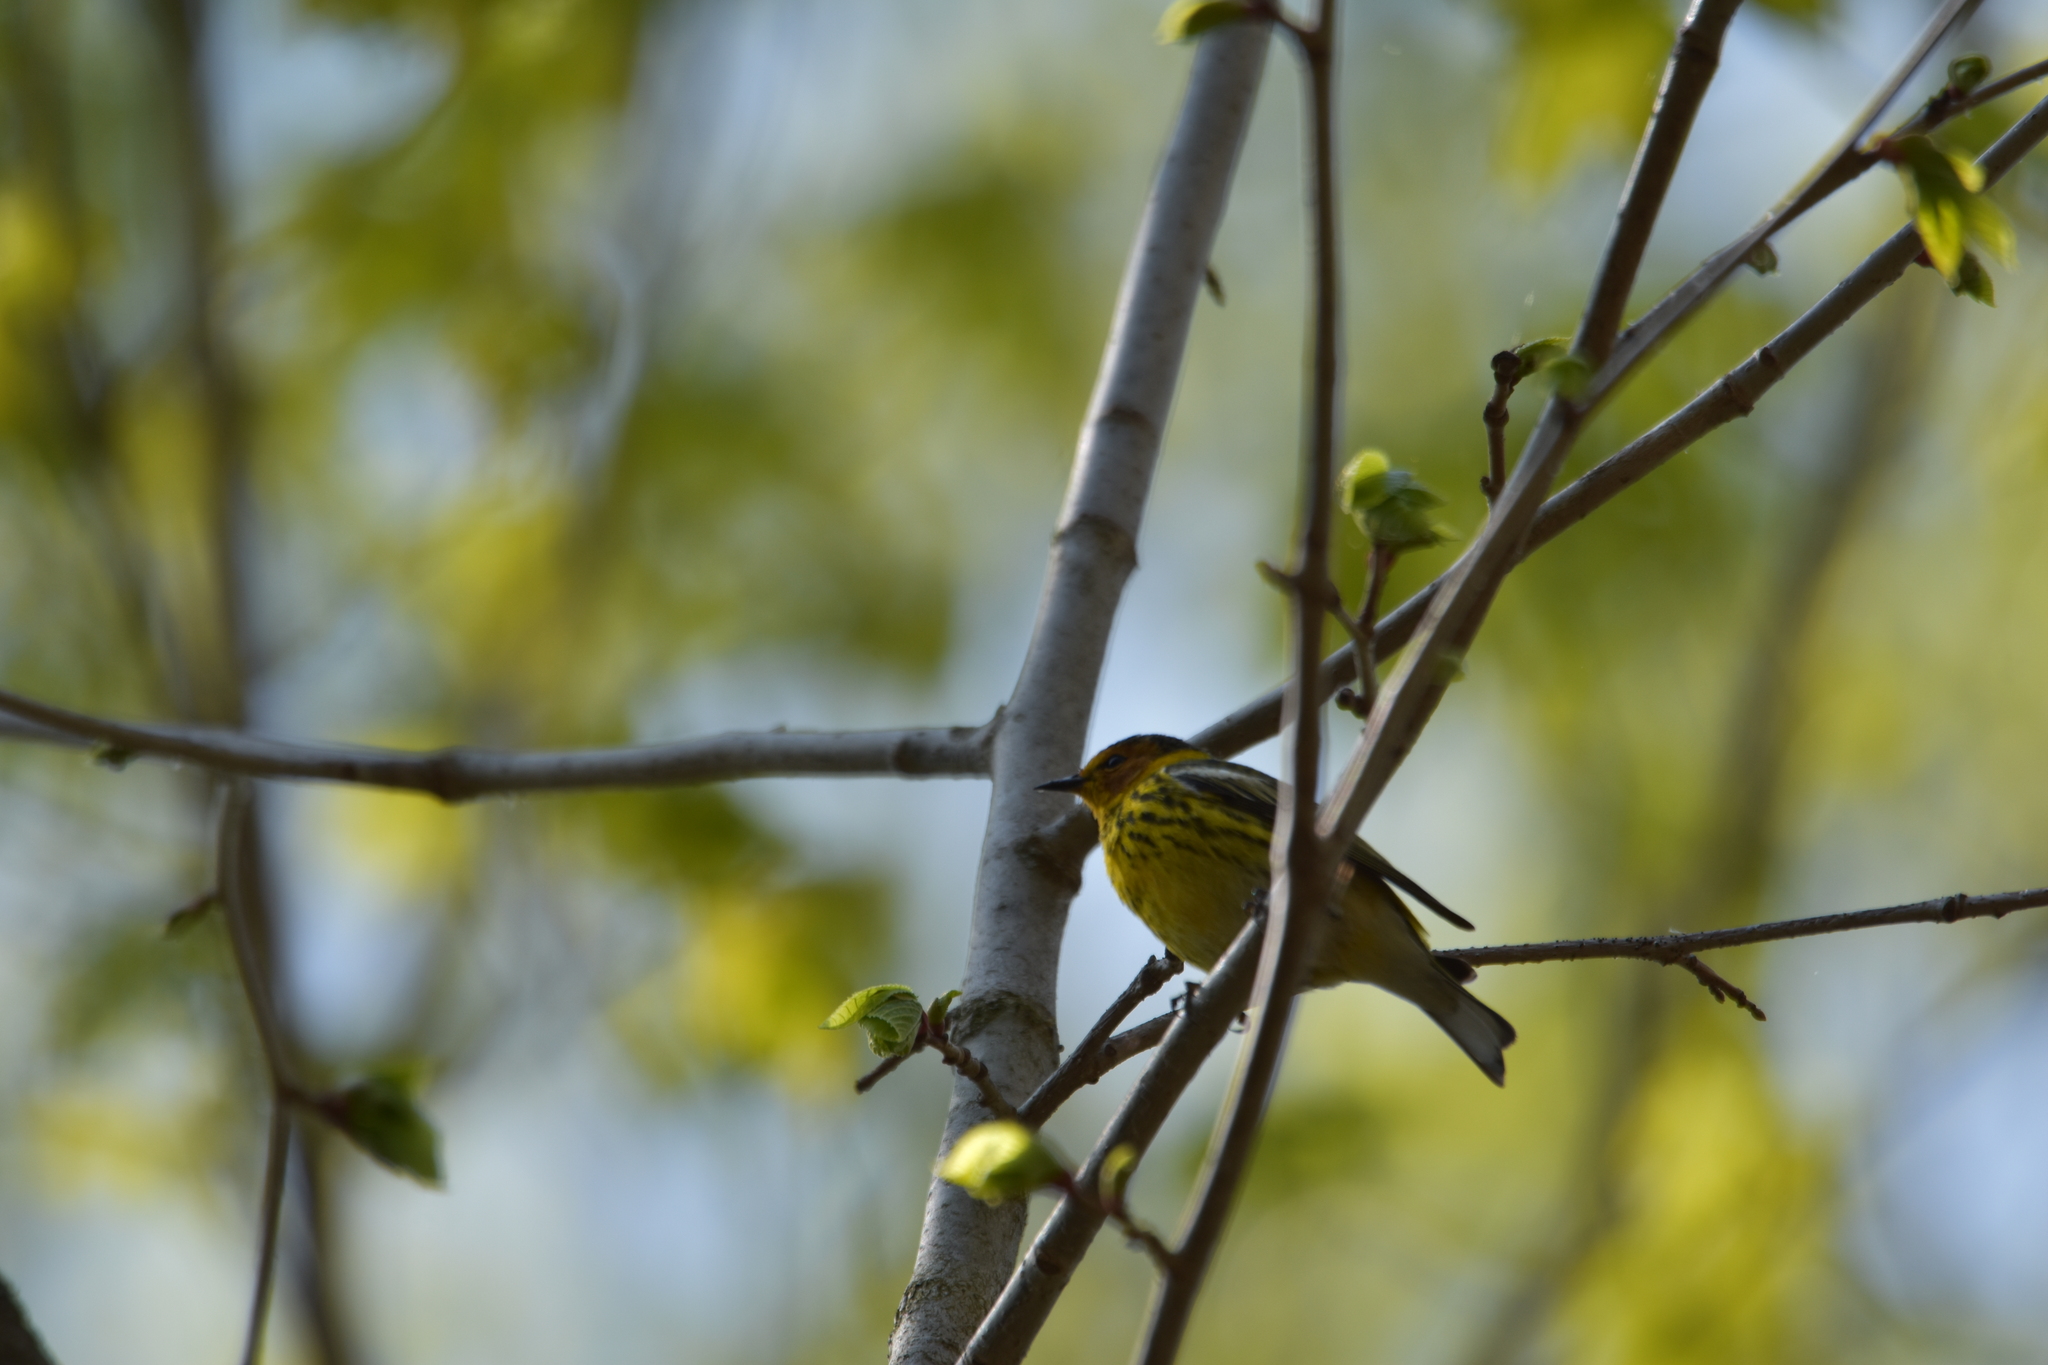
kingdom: Animalia
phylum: Chordata
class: Aves
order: Passeriformes
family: Parulidae
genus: Setophaga
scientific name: Setophaga tigrina
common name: Cape may warbler
